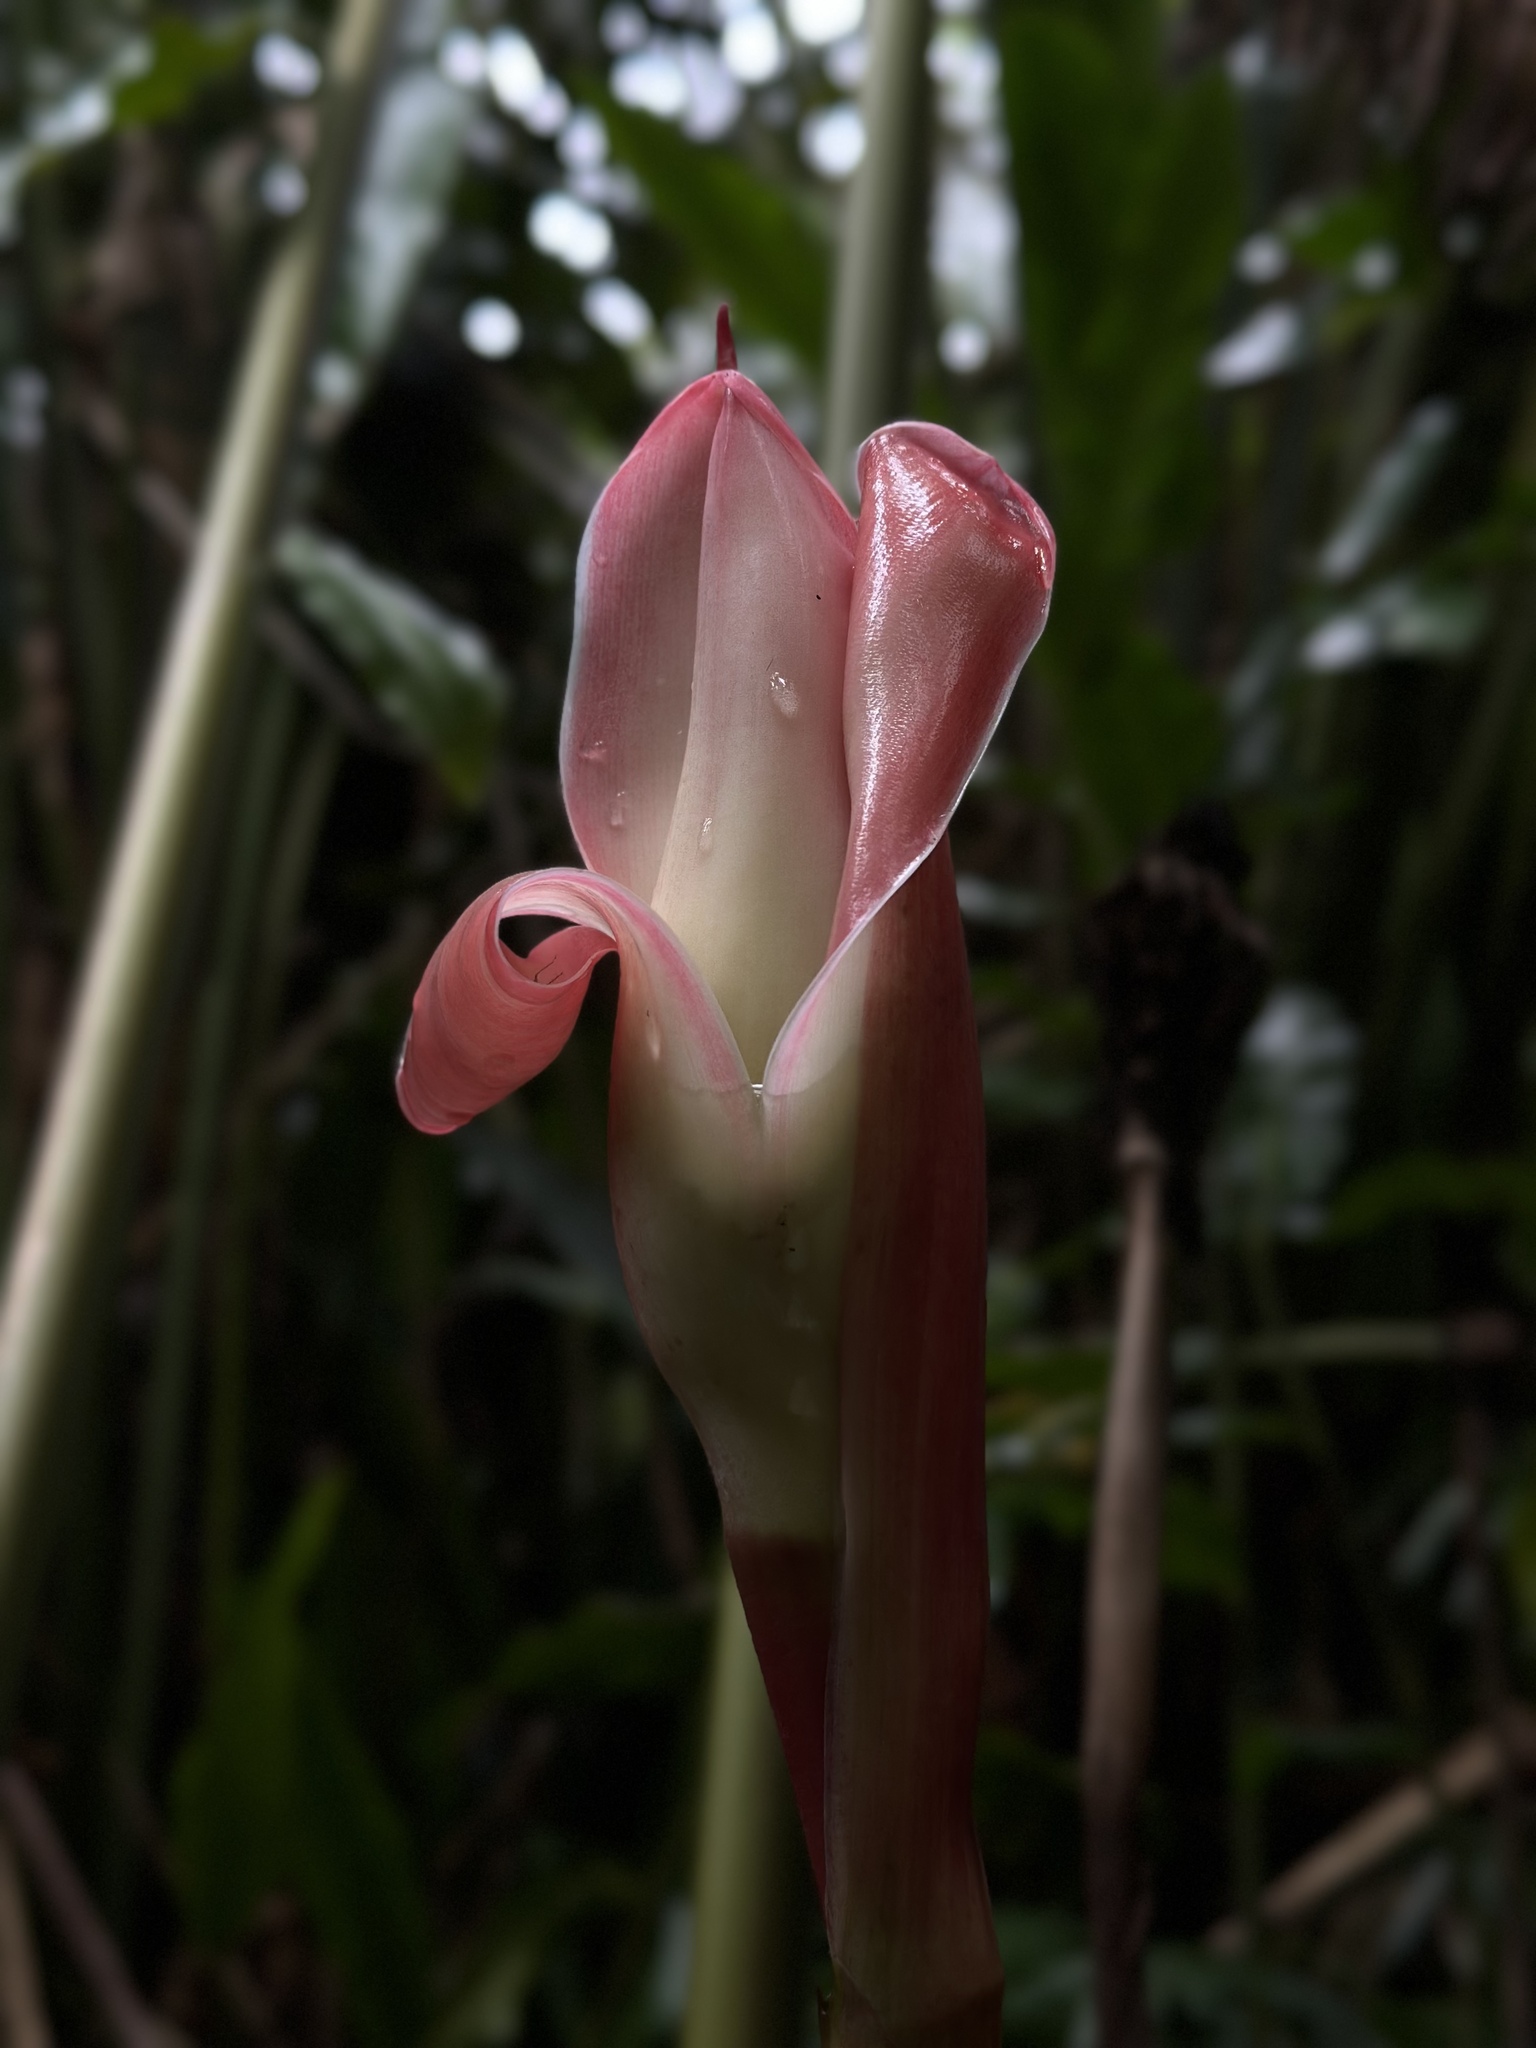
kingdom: Plantae
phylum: Tracheophyta
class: Liliopsida
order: Zingiberales
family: Zingiberaceae
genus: Etlingera
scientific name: Etlingera elatior
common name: Philippine waxflower
